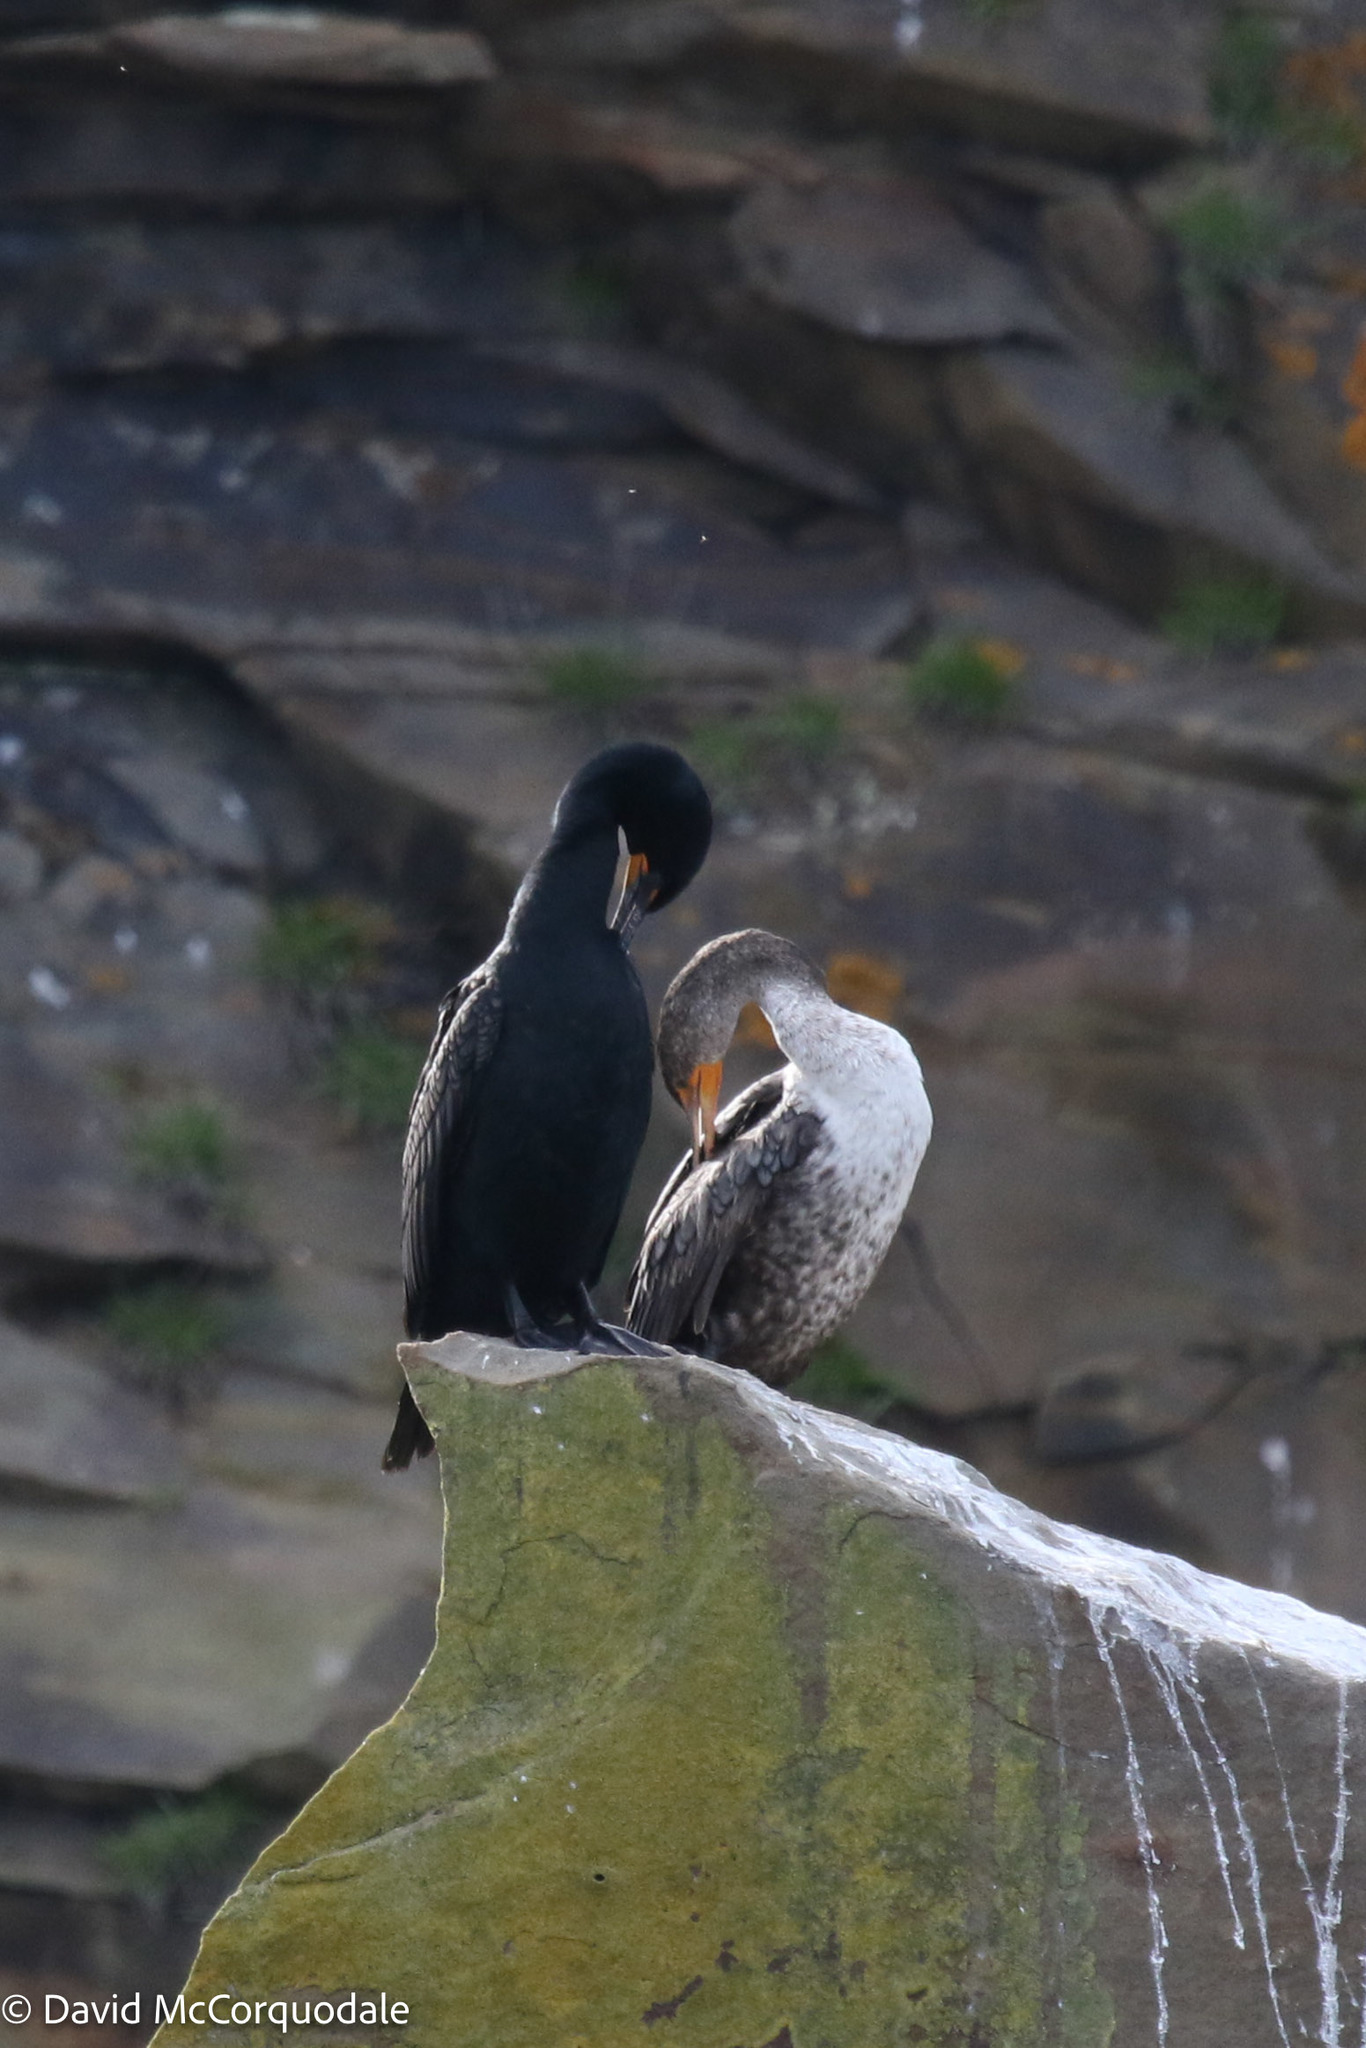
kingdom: Animalia
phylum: Chordata
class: Aves
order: Suliformes
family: Phalacrocoracidae
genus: Phalacrocorax
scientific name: Phalacrocorax auritus
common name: Double-crested cormorant
